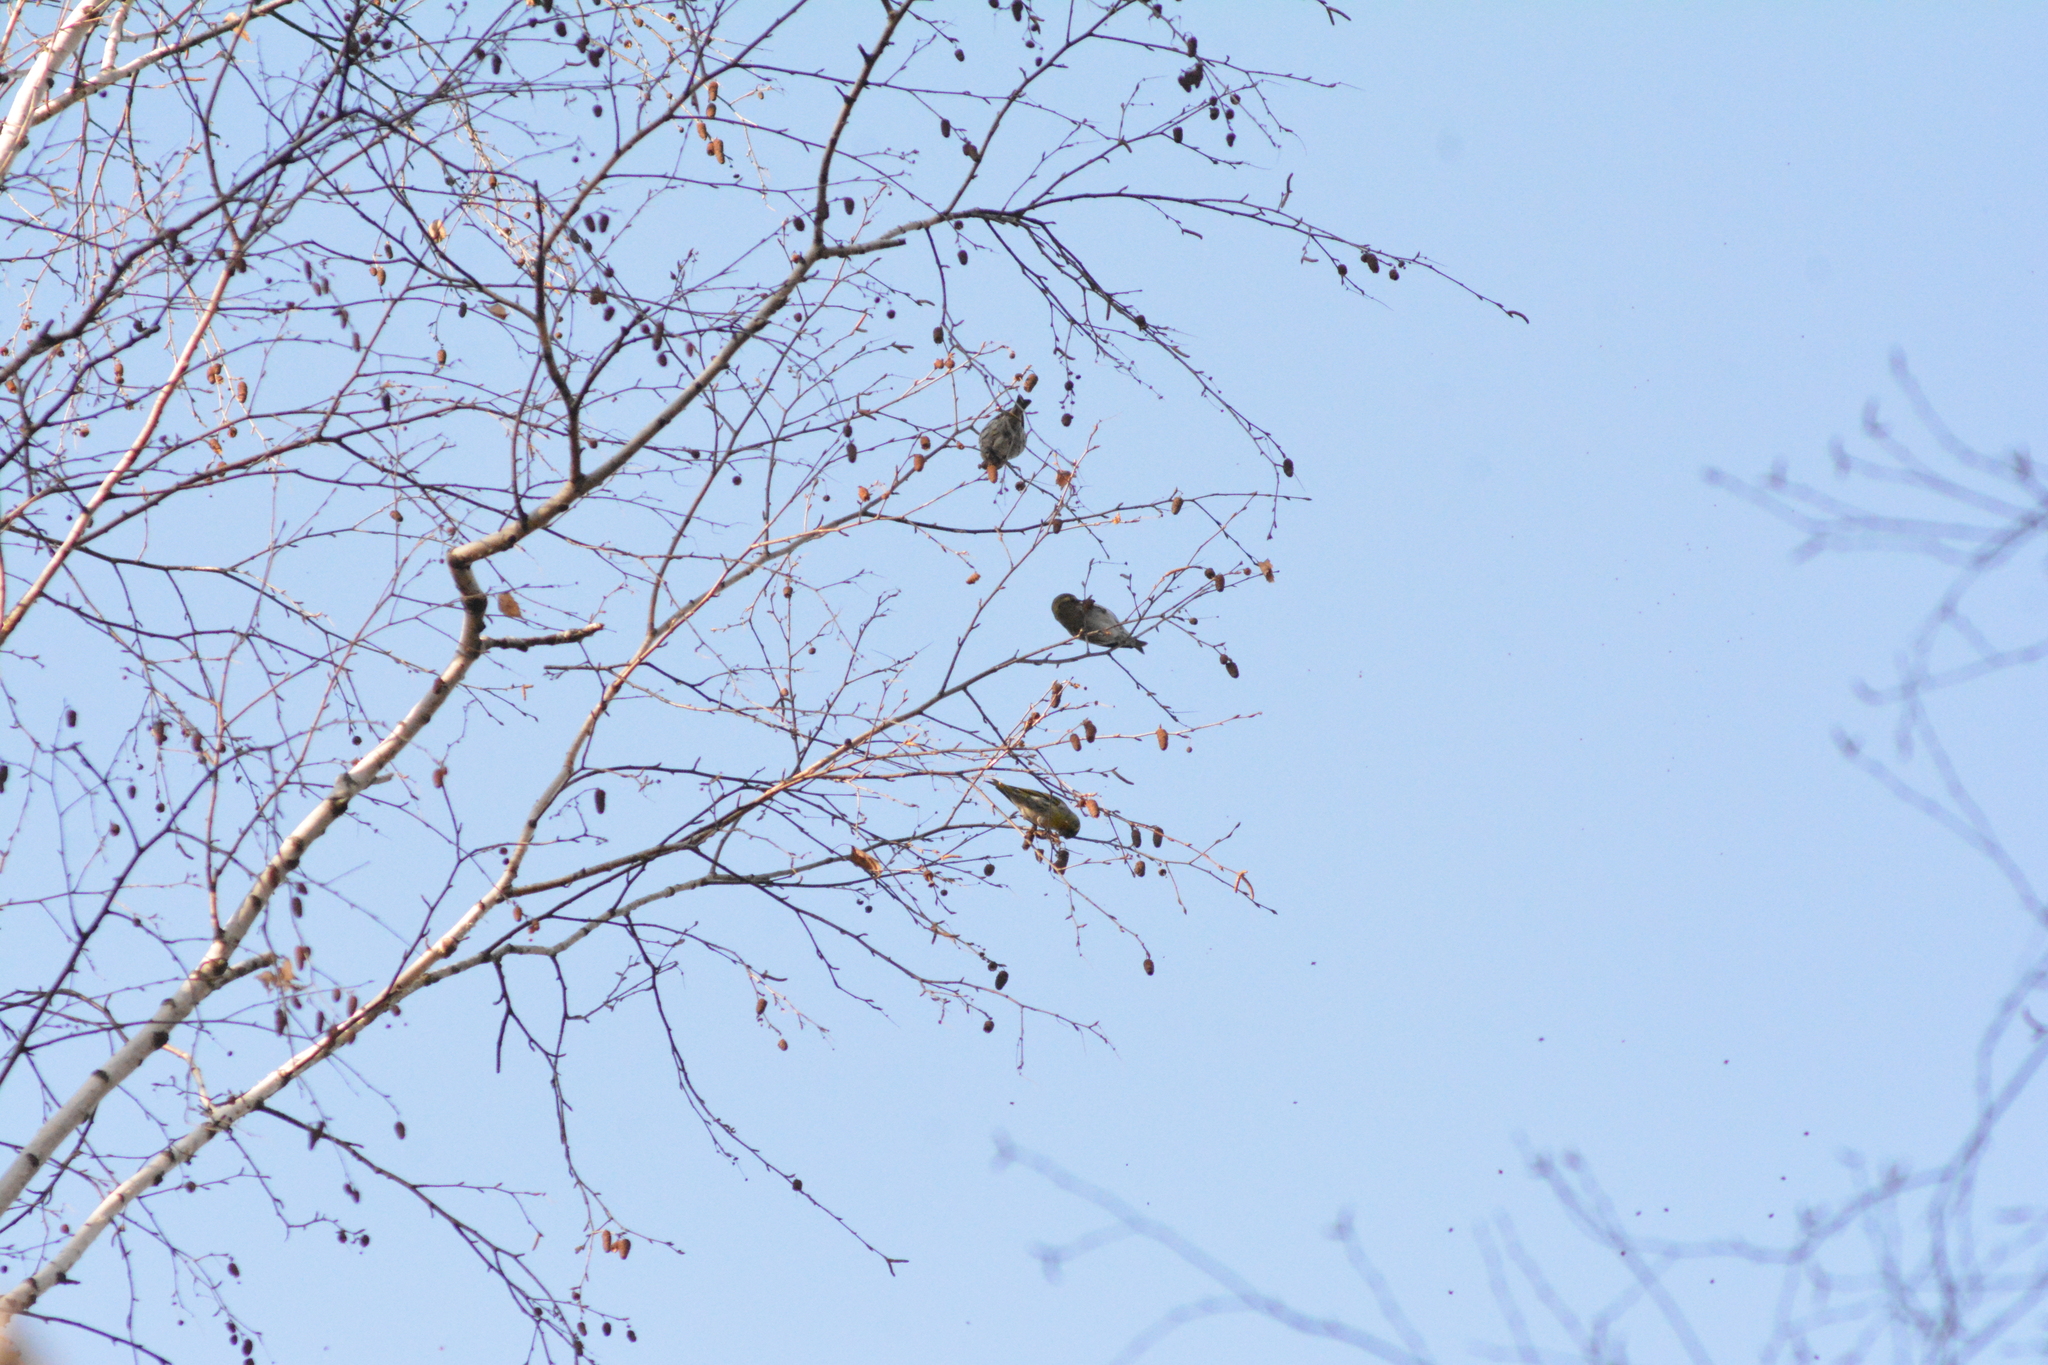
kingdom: Animalia
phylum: Chordata
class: Aves
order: Passeriformes
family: Fringillidae
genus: Spinus
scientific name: Spinus spinus
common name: Eurasian siskin
